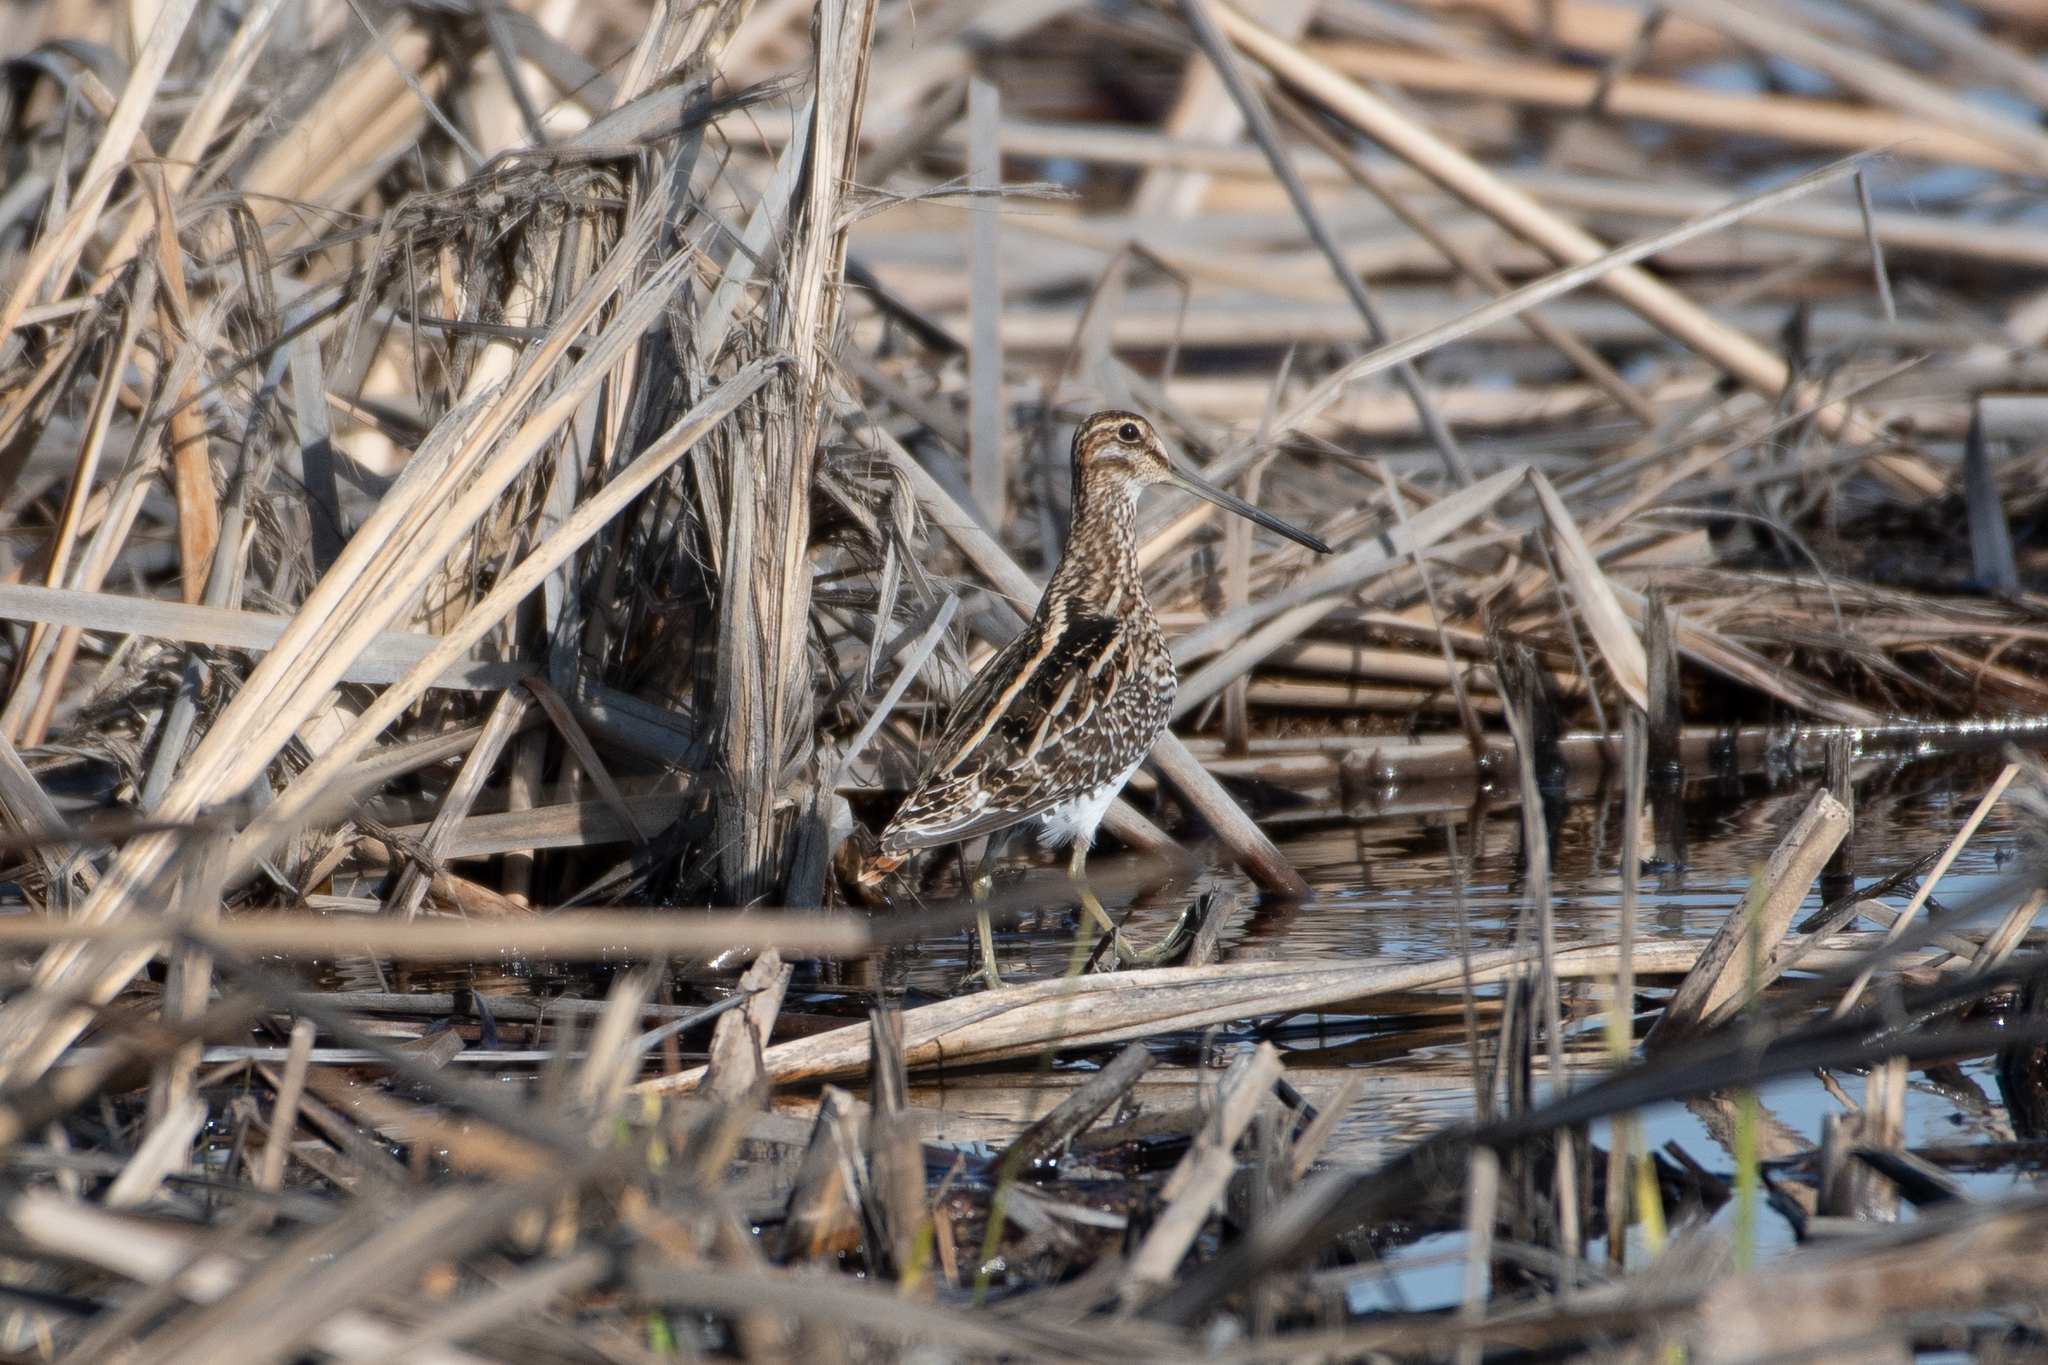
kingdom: Animalia
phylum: Chordata
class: Aves
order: Charadriiformes
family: Scolopacidae
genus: Gallinago
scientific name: Gallinago delicata
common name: Wilson's snipe
